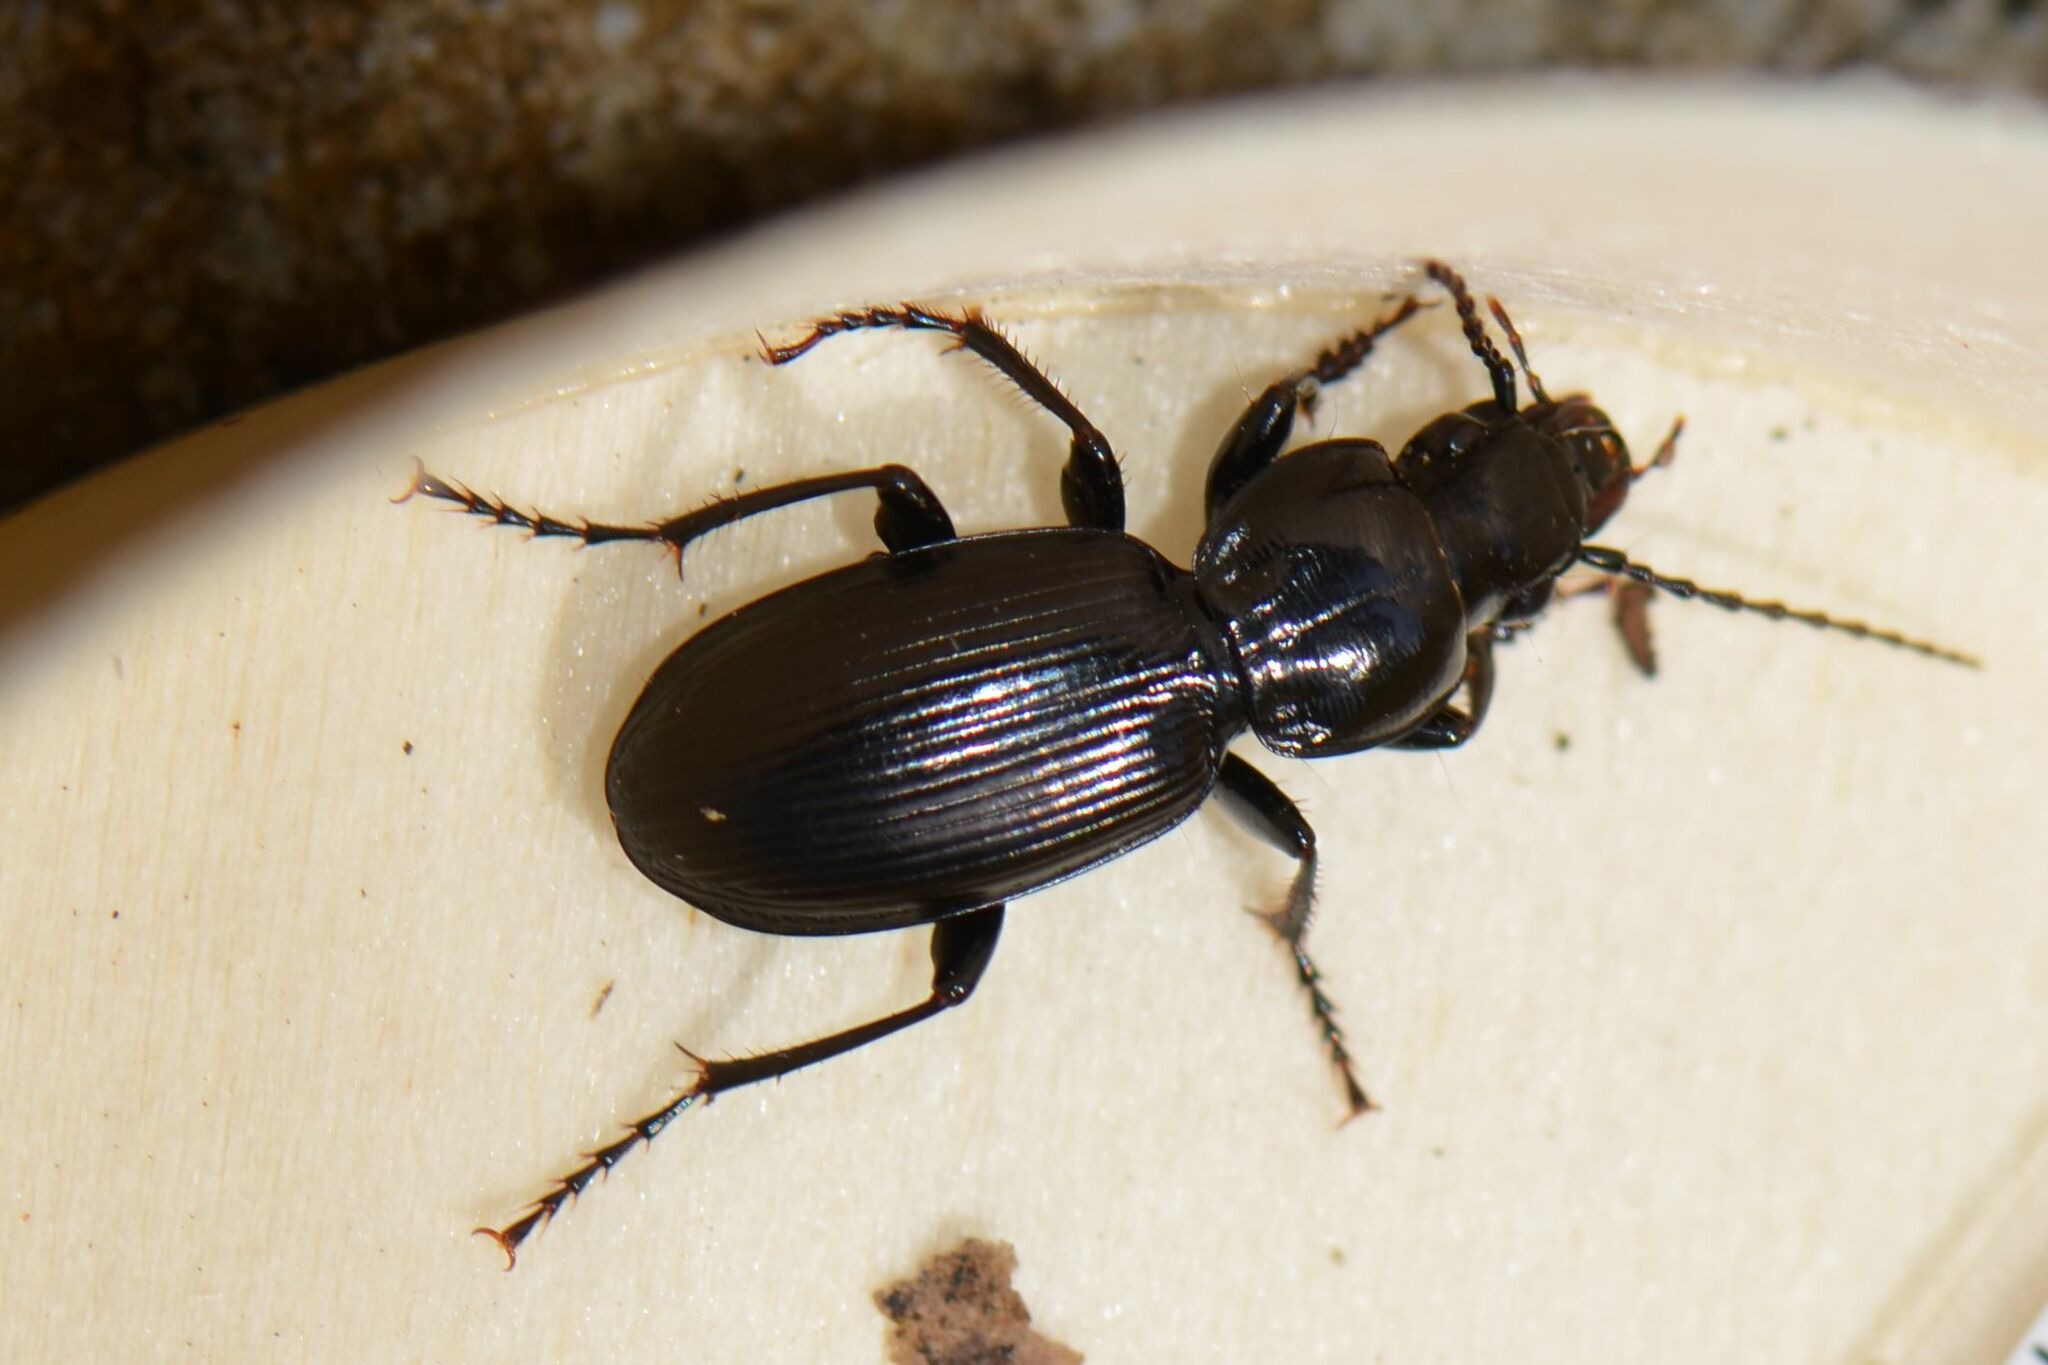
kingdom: Animalia
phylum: Arthropoda
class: Insecta
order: Coleoptera
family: Carabidae
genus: Pterostichus
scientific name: Pterostichus madidus
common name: Black clock
